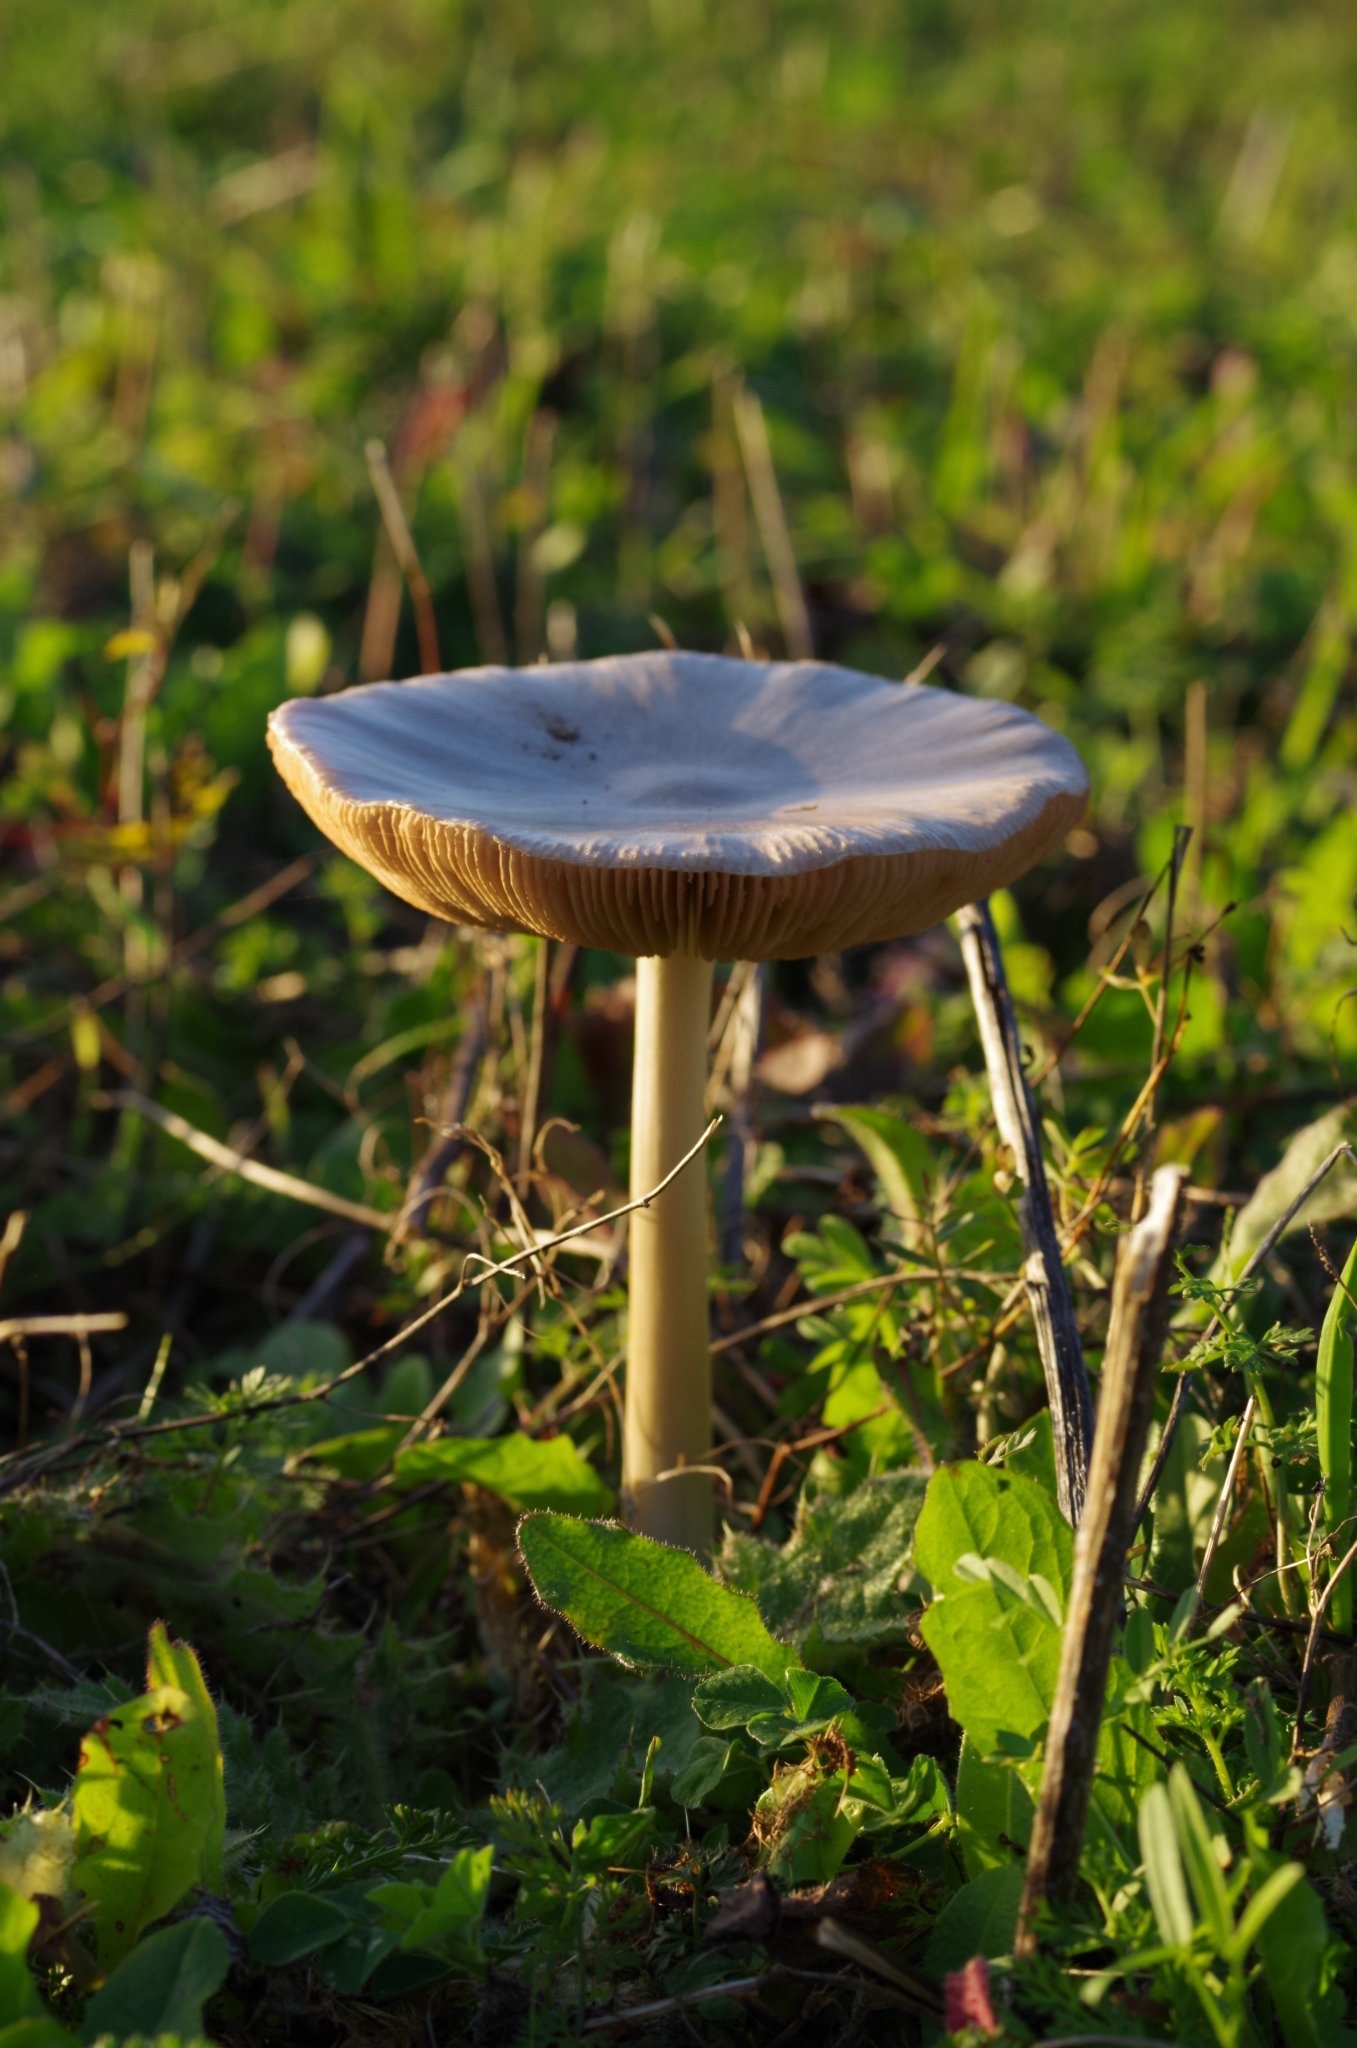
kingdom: Fungi
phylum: Basidiomycota
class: Agaricomycetes
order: Agaricales
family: Pluteaceae
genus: Volvopluteus
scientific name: Volvopluteus gloiocephalus
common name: Stubble rosegill
